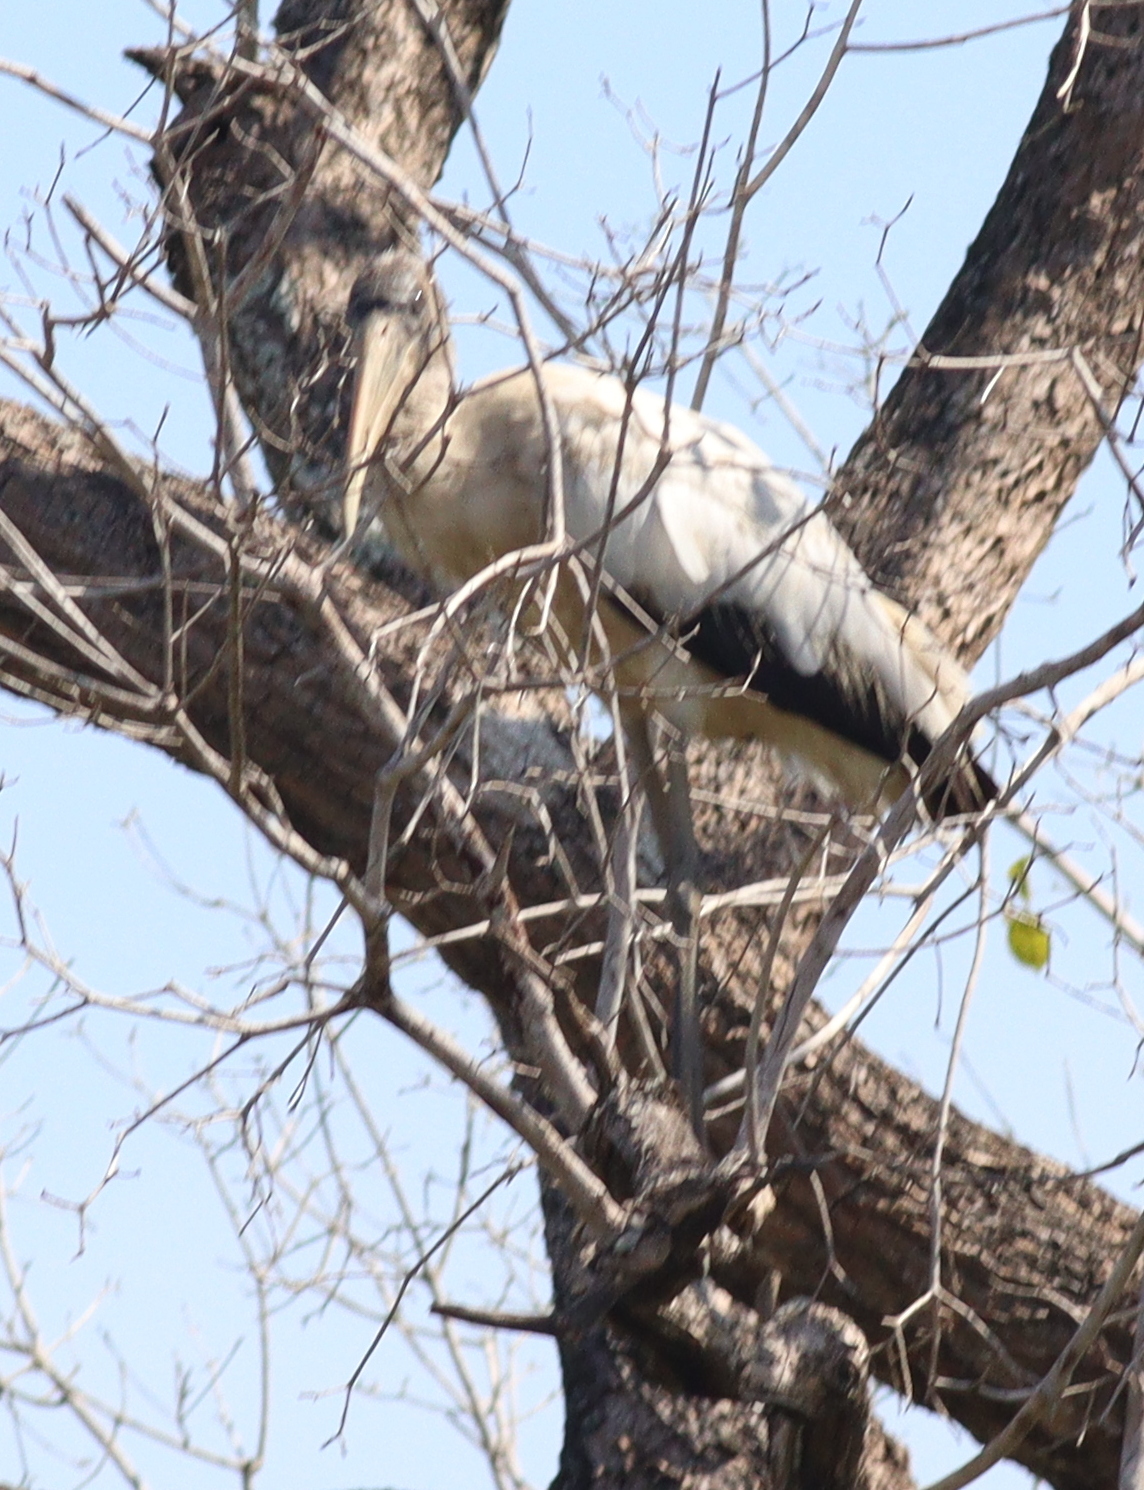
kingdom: Animalia
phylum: Chordata
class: Aves
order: Ciconiiformes
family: Ciconiidae
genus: Mycteria
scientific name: Mycteria americana
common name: Wood stork
